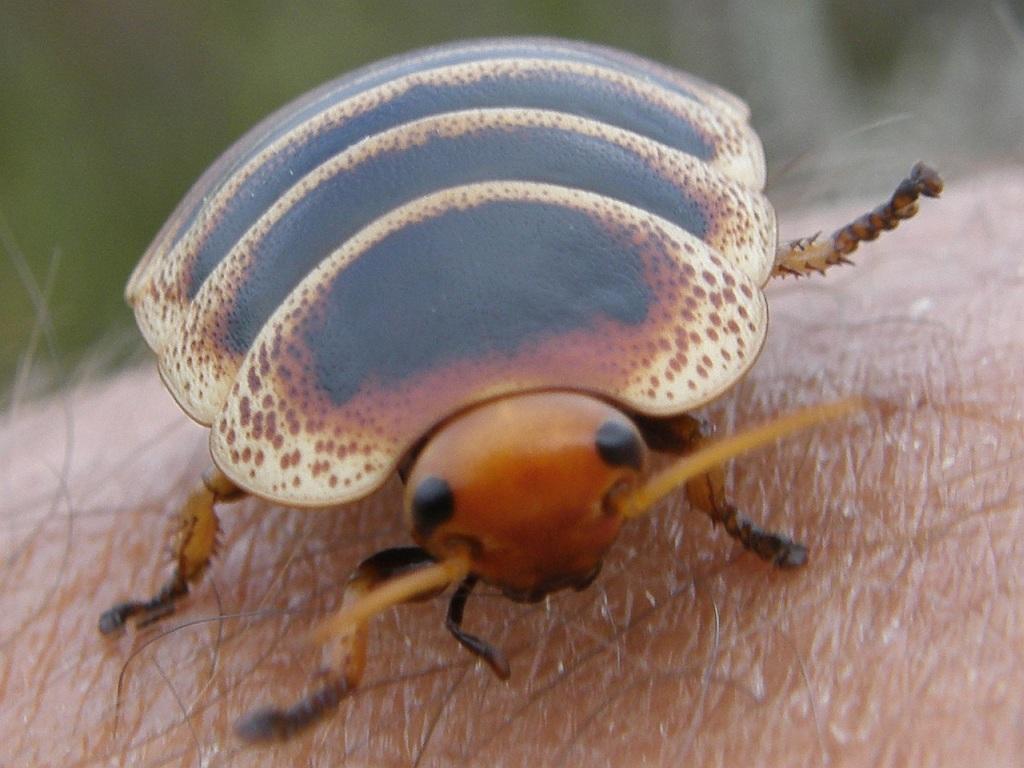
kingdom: Animalia
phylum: Arthropoda
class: Insecta
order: Blattodea
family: Blaberidae
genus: Aptera
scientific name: Aptera fusca
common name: Cape mountain cockroach
